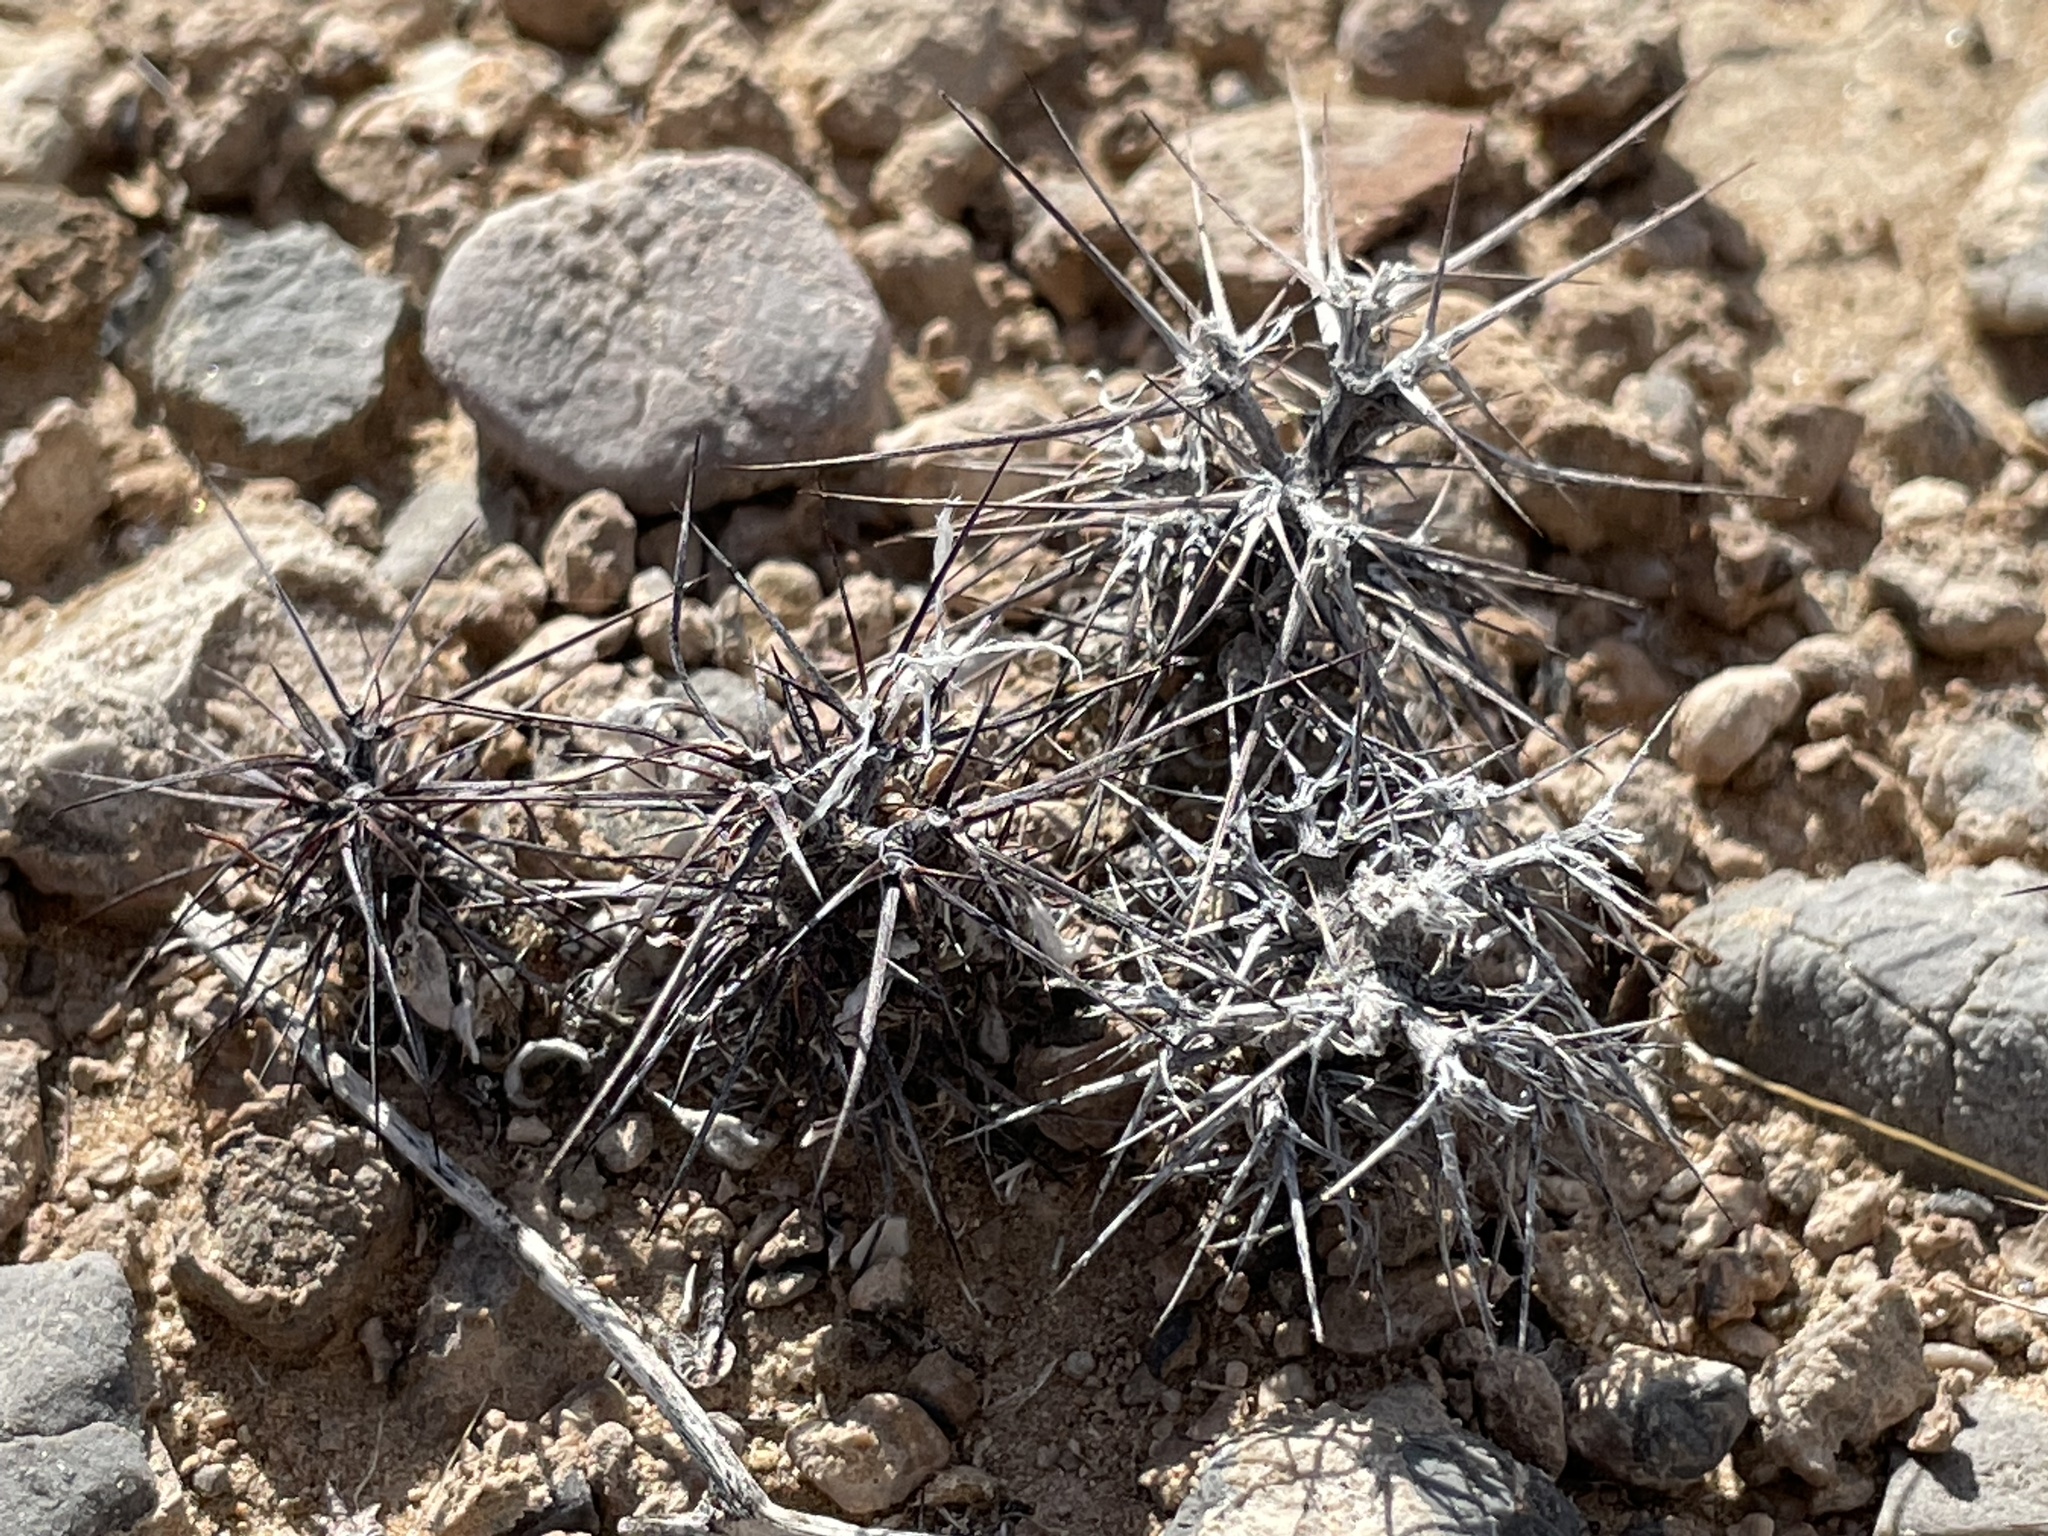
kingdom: Plantae
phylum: Tracheophyta
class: Magnoliopsida
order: Caryophyllales
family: Polygonaceae
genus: Chorizanthe
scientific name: Chorizanthe rigida
